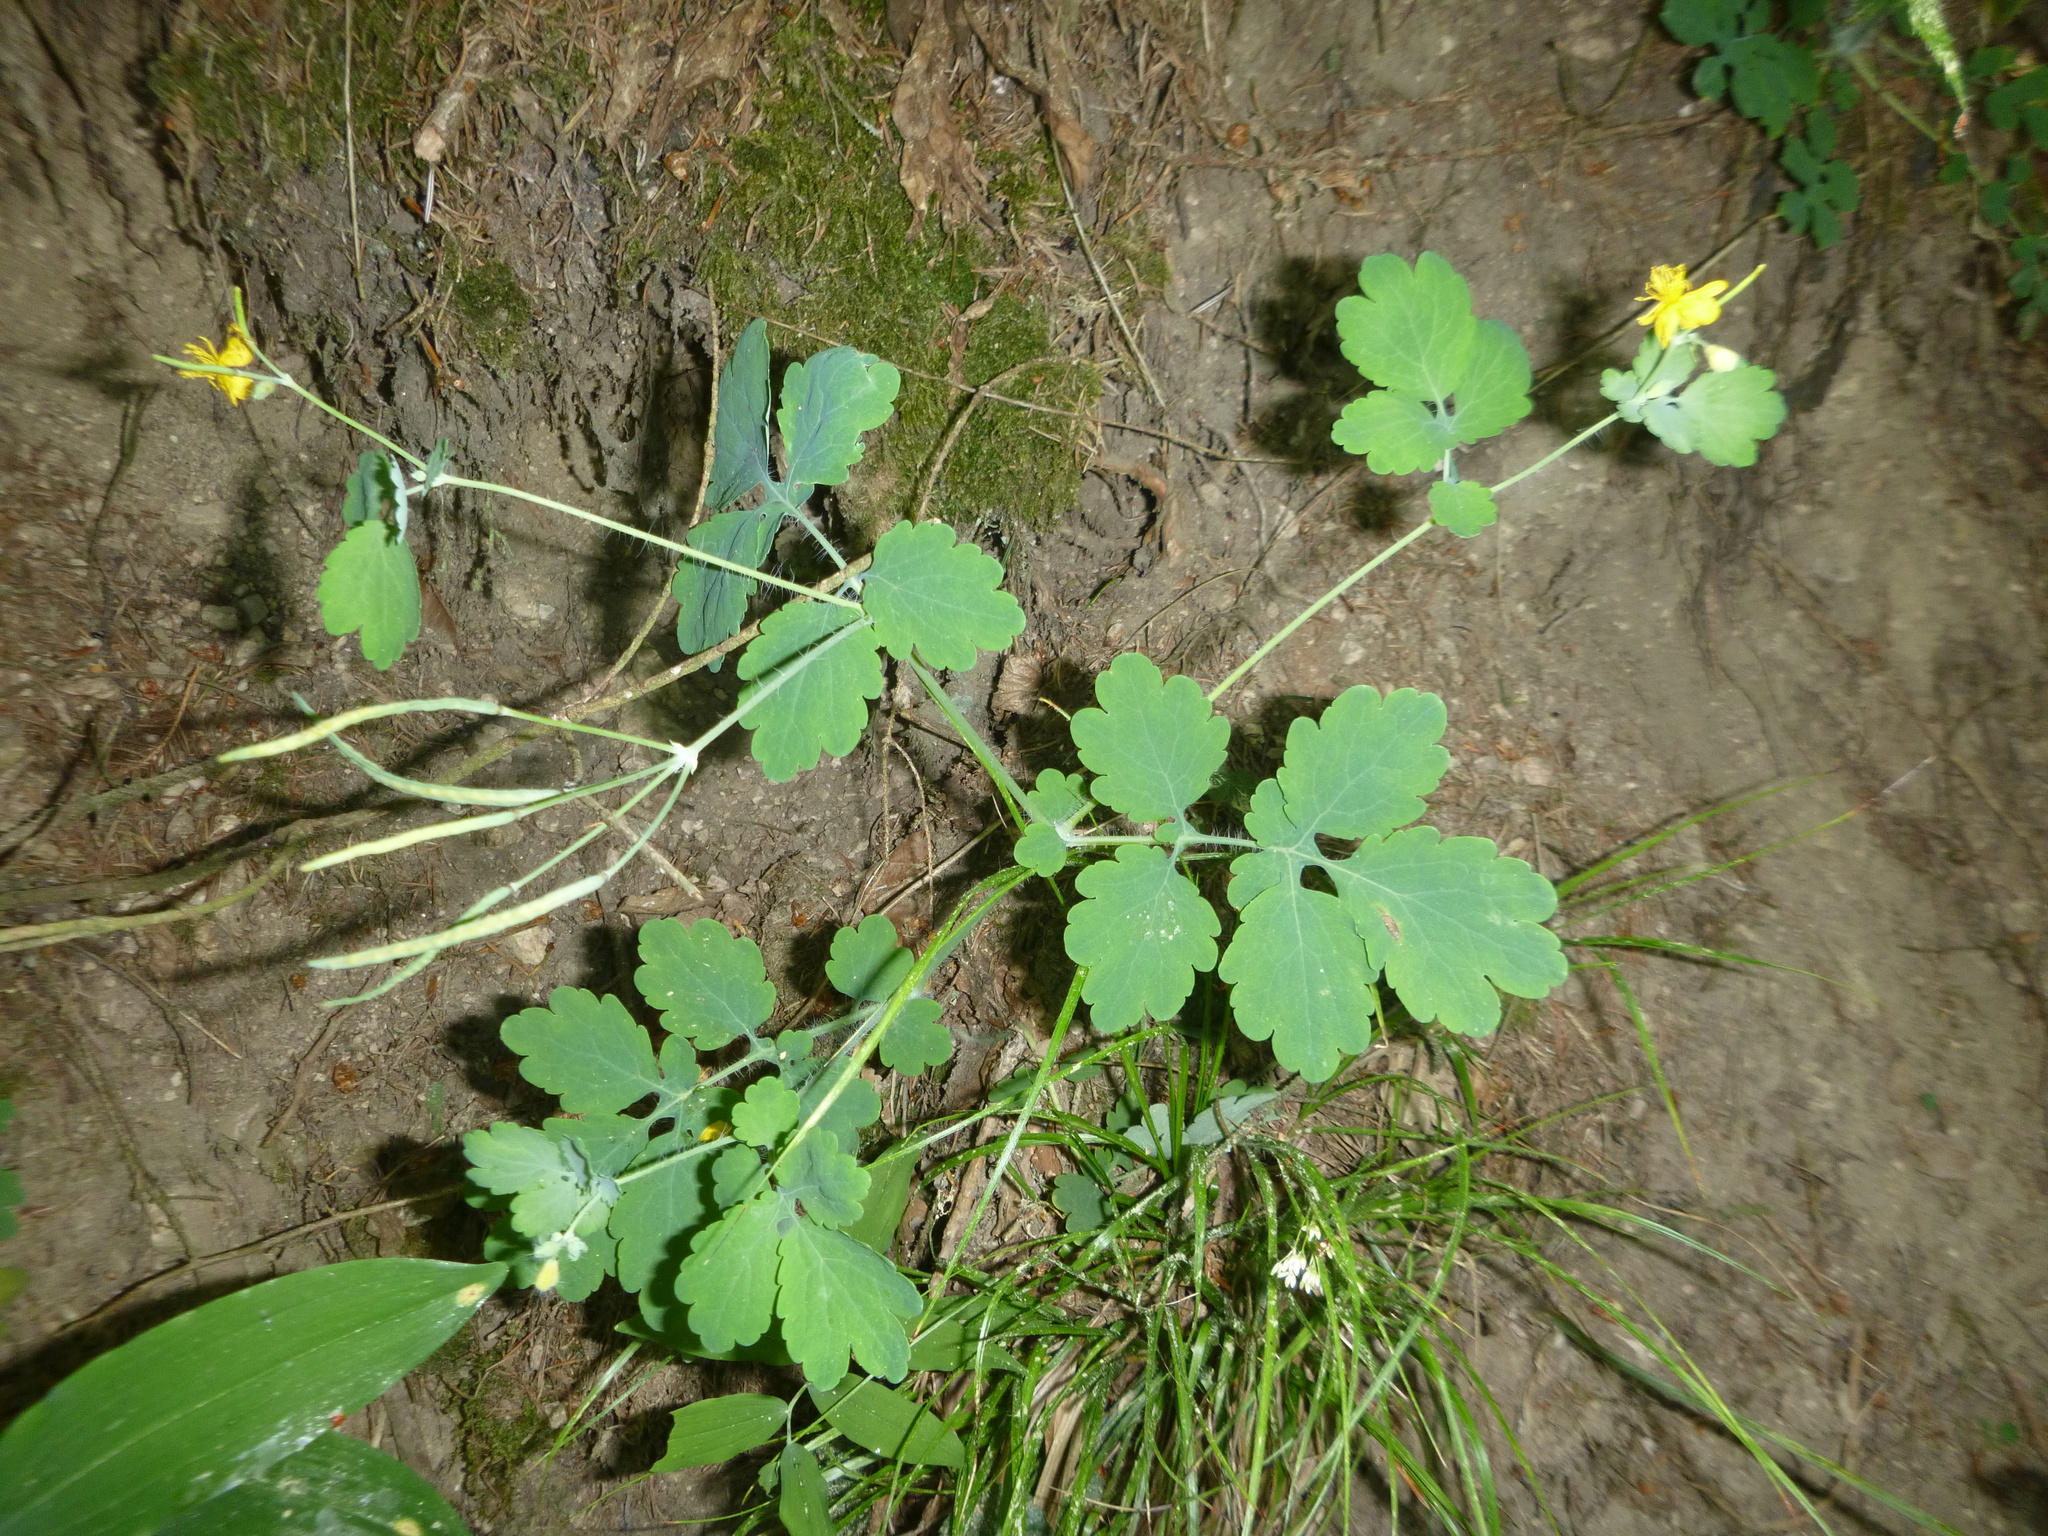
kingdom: Plantae
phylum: Tracheophyta
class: Magnoliopsida
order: Ranunculales
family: Papaveraceae
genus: Chelidonium
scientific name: Chelidonium majus
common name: Greater celandine
